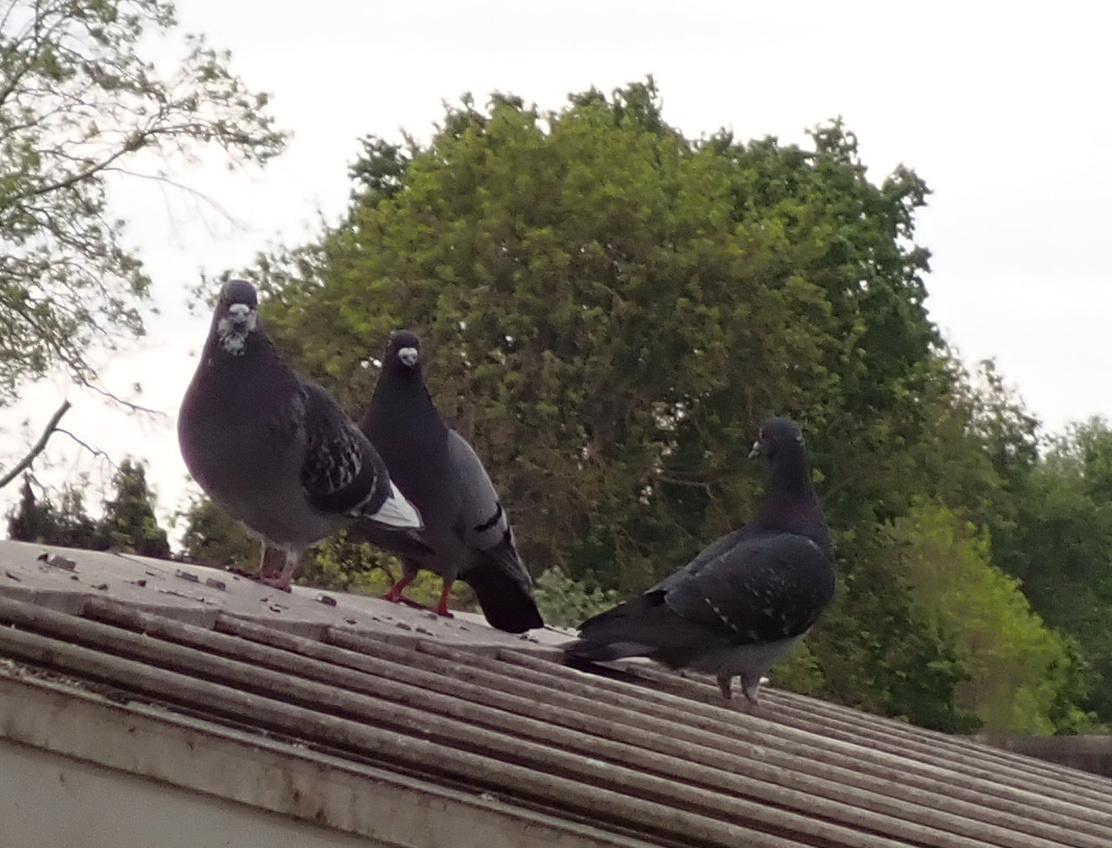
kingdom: Animalia
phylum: Chordata
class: Aves
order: Columbiformes
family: Columbidae
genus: Columba
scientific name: Columba livia
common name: Rock pigeon
